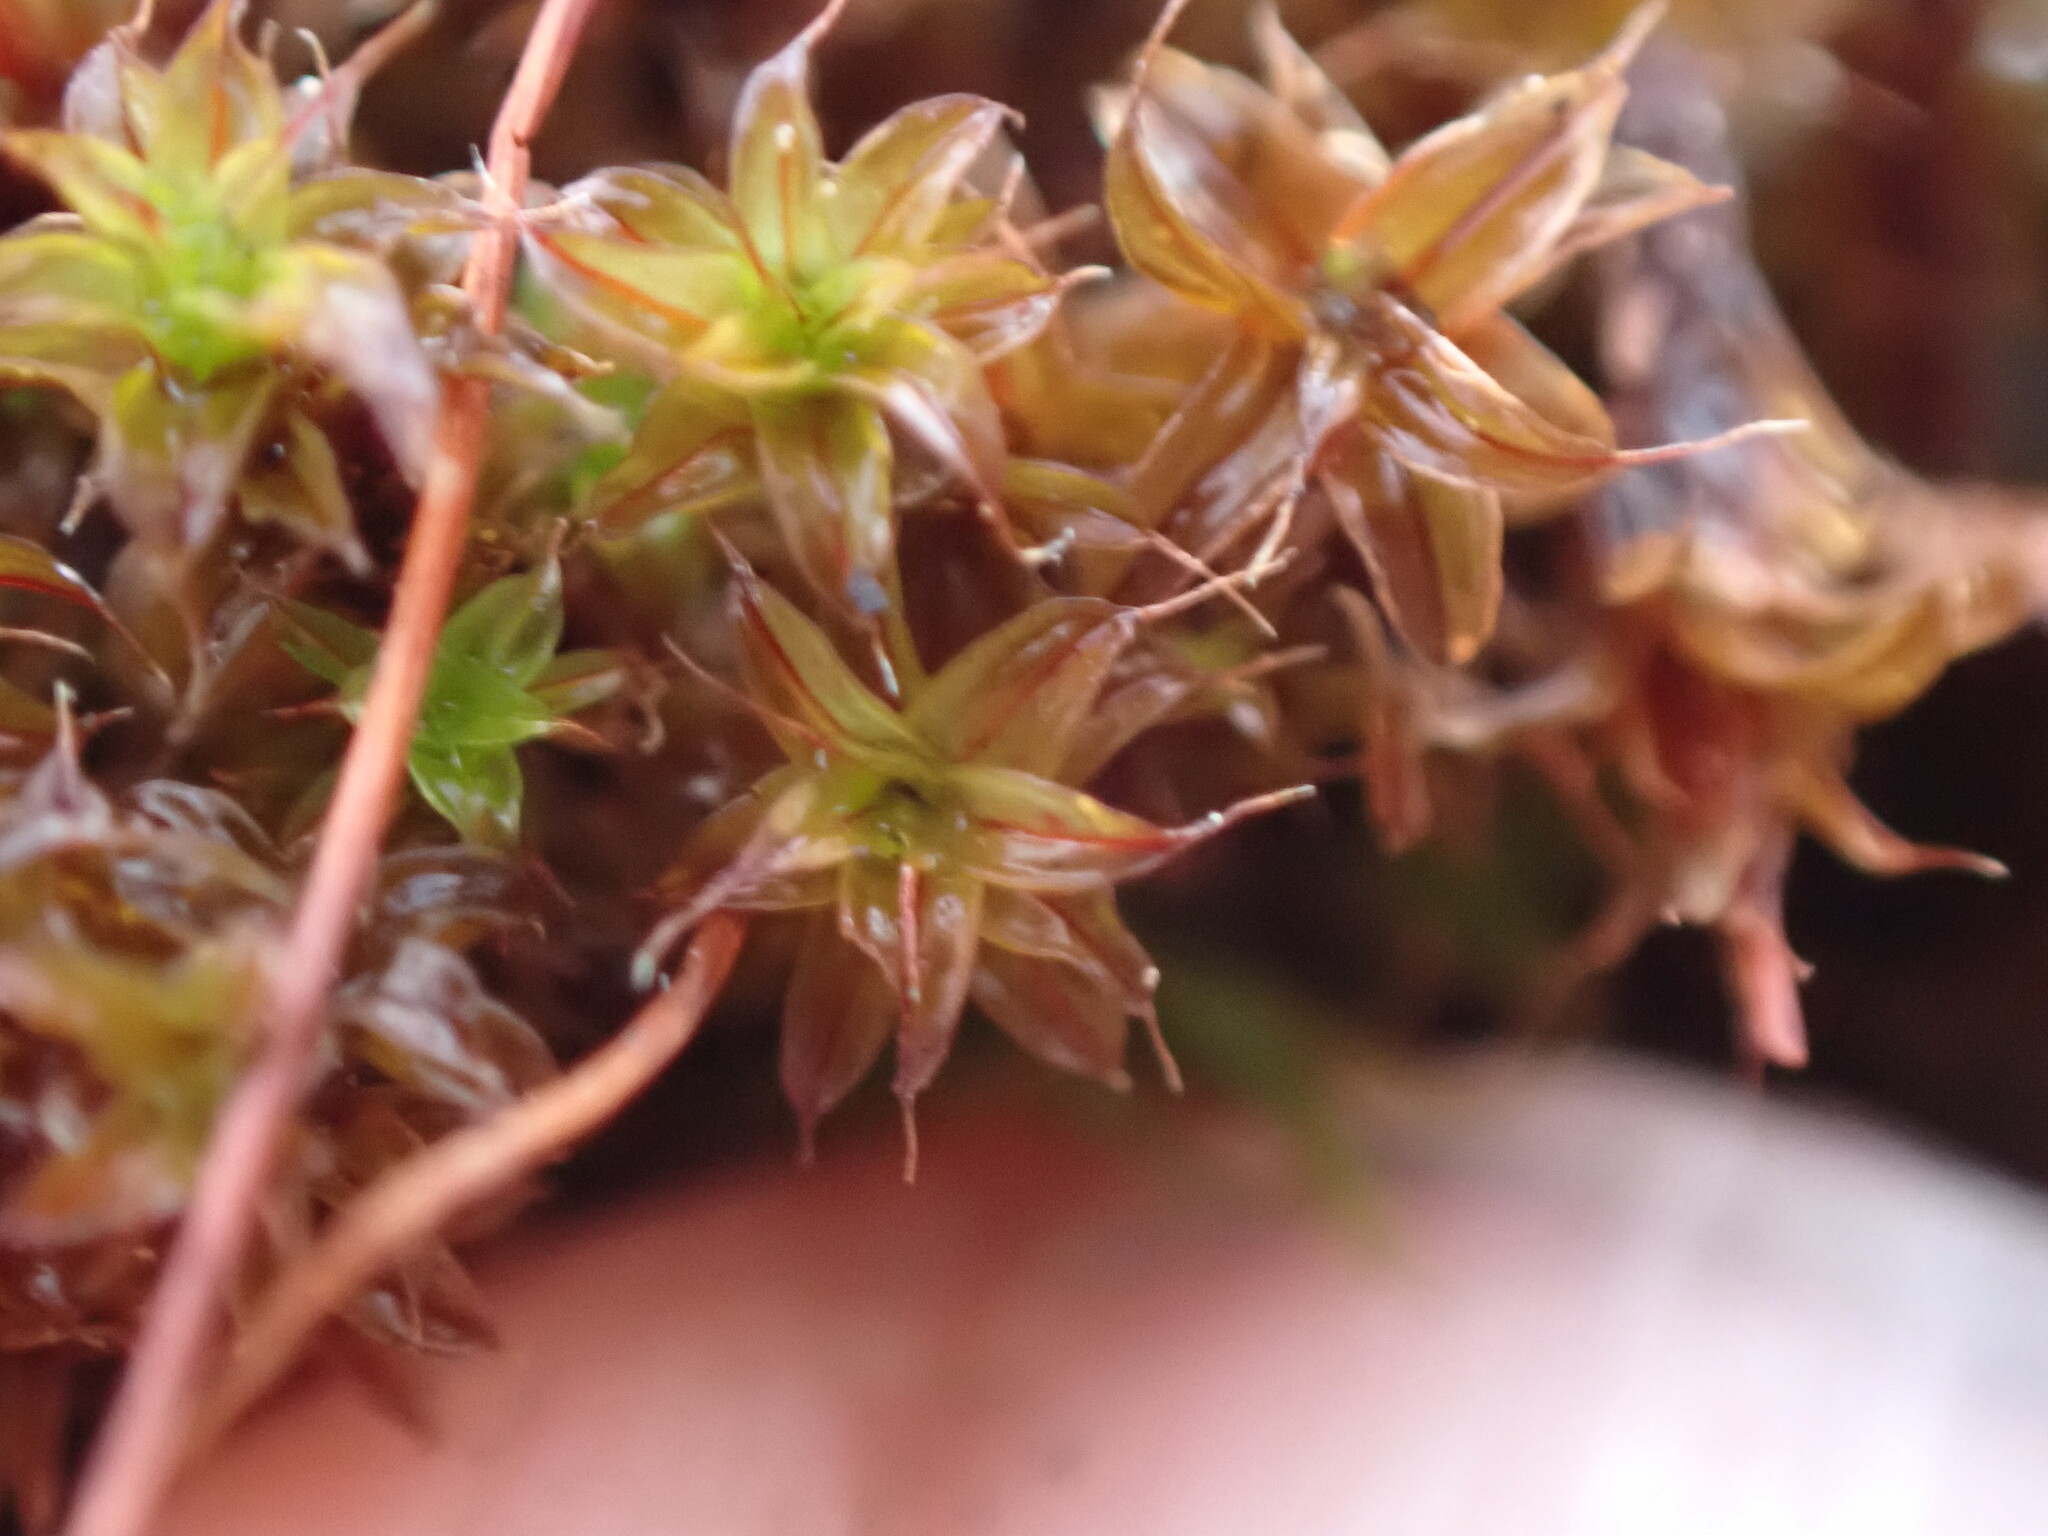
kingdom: Plantae
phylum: Bryophyta
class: Bryopsida
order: Pottiales
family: Pottiaceae
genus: Syntrichia
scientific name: Syntrichia norvegica
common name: Norway screw moss
